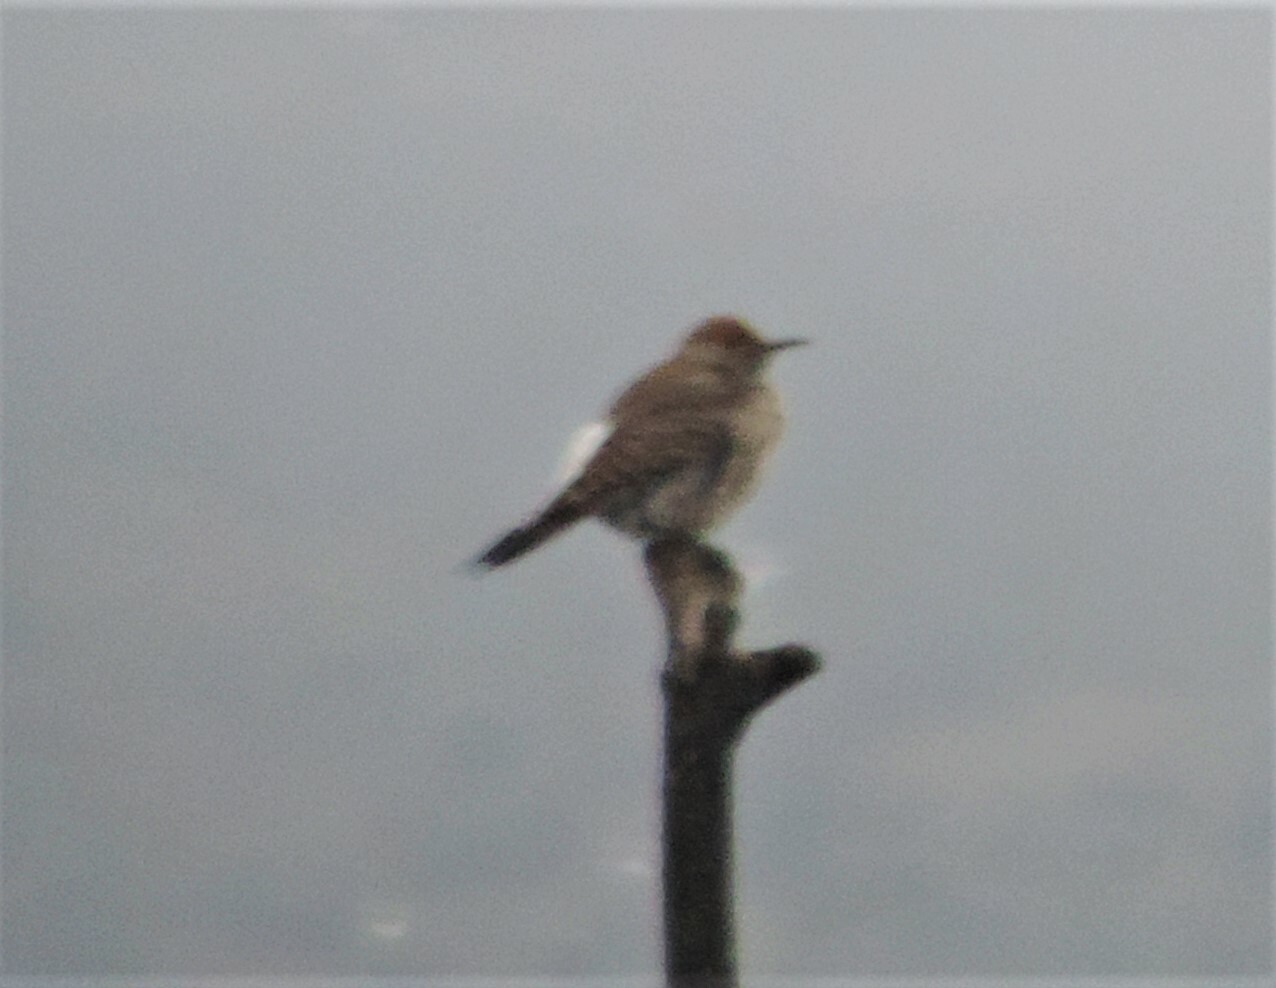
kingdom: Animalia
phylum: Chordata
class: Aves
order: Piciformes
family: Picidae
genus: Colaptes
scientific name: Colaptes auratus
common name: Northern flicker
